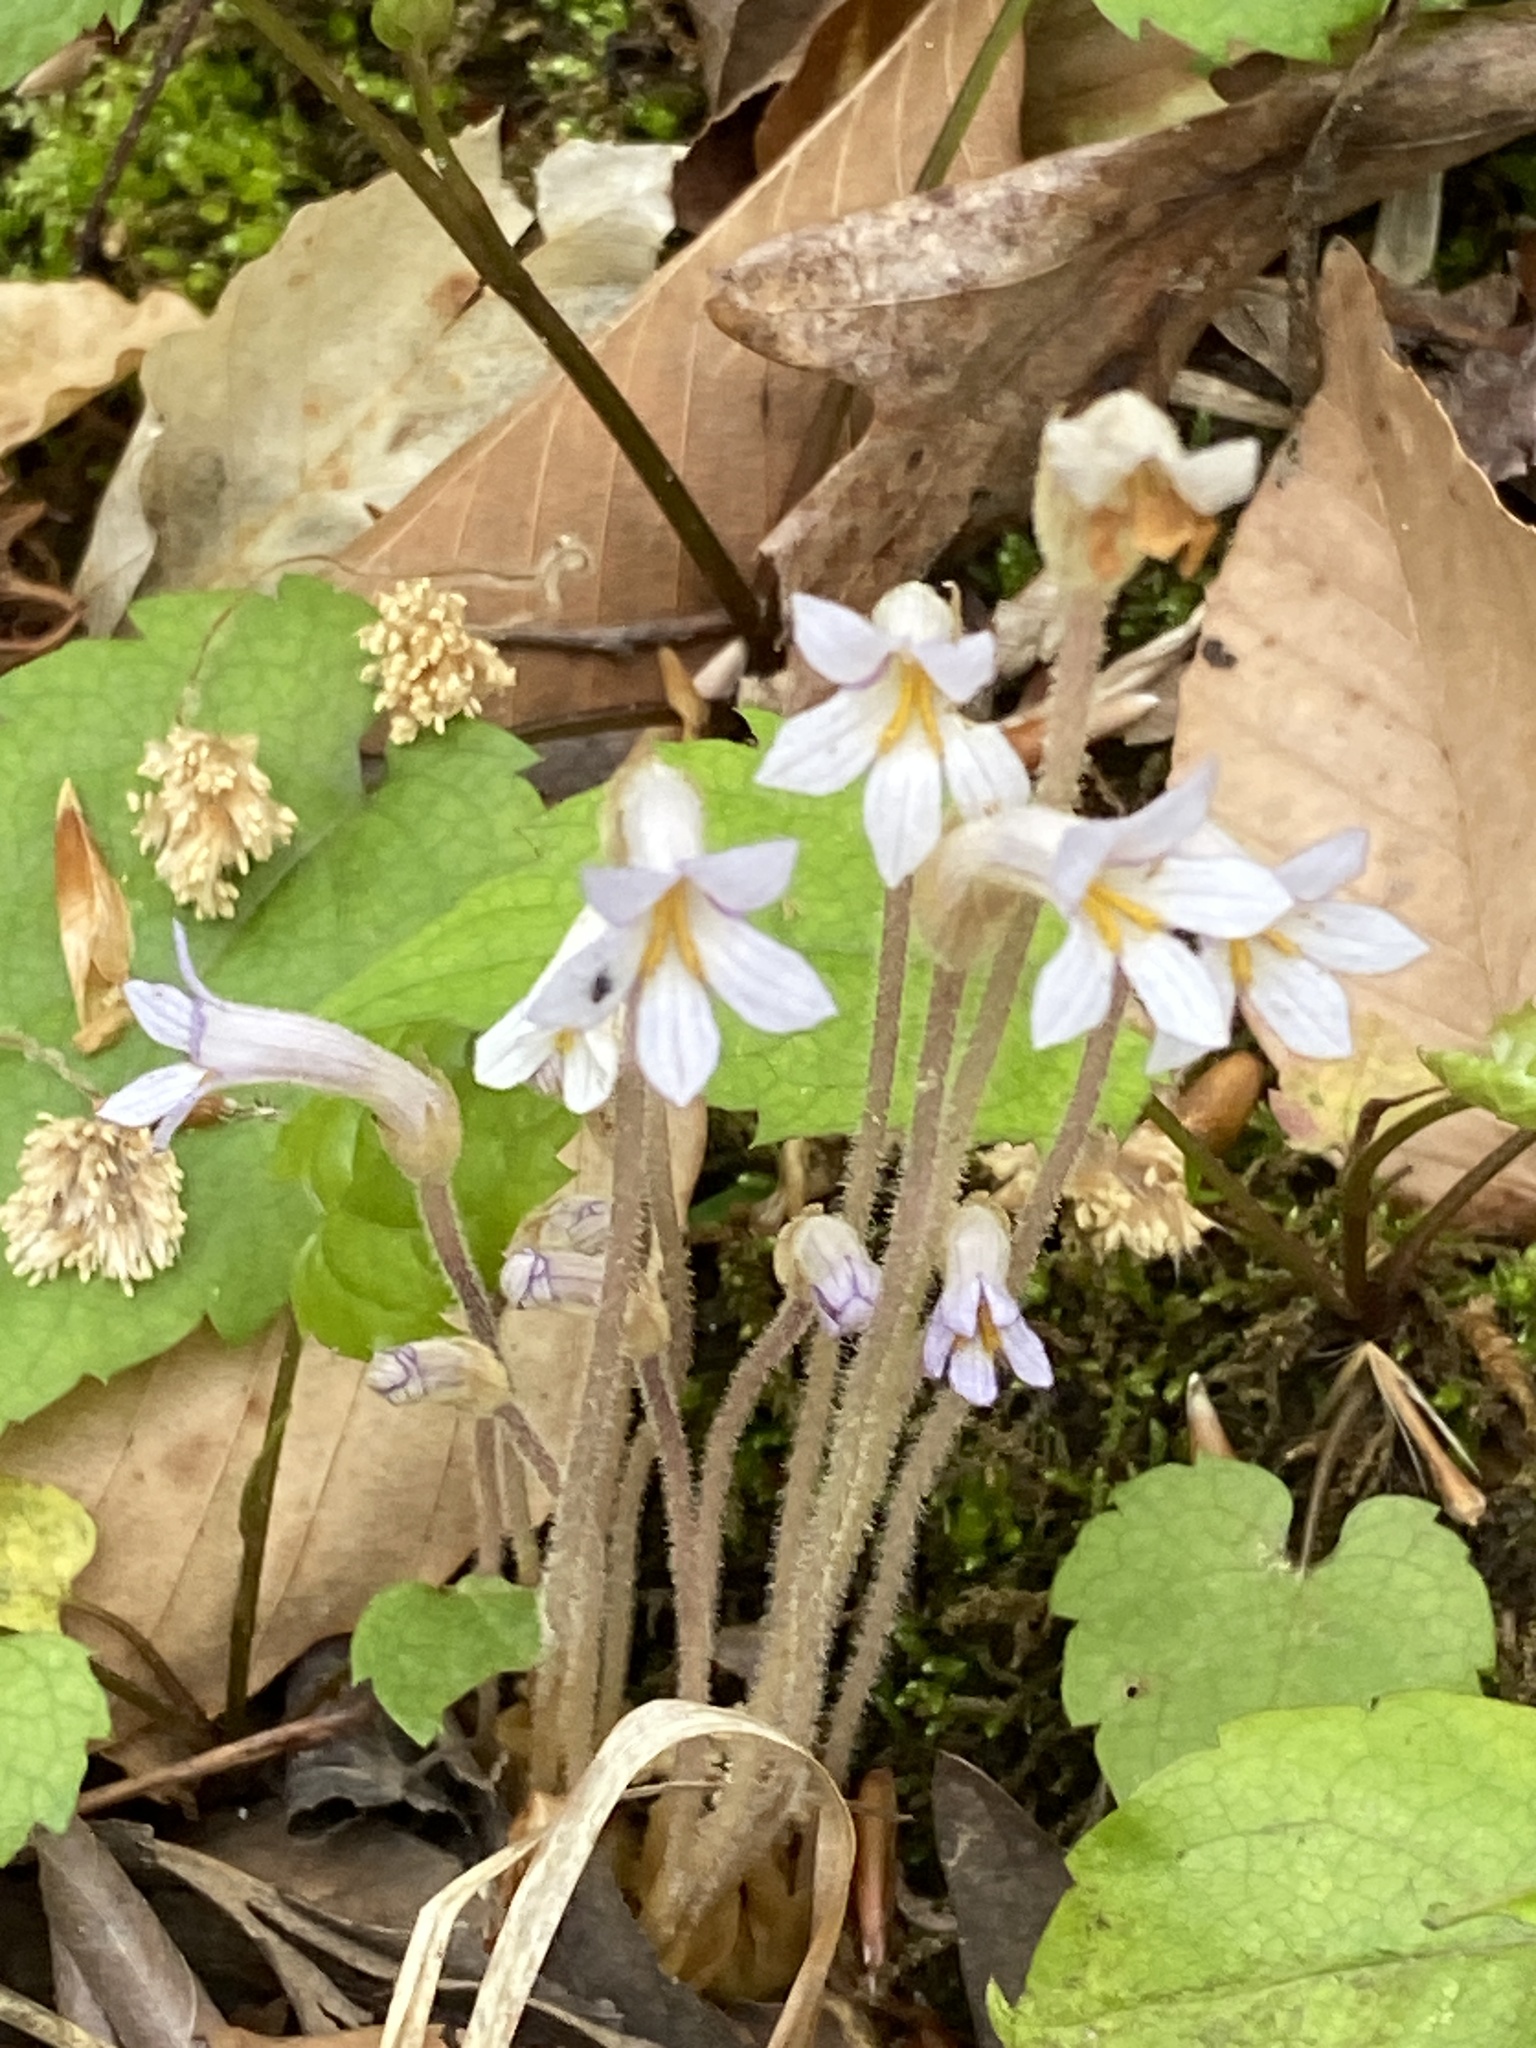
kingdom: Plantae
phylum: Tracheophyta
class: Magnoliopsida
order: Lamiales
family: Orobanchaceae
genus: Aphyllon
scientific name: Aphyllon uniflorum
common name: One-flowered broomrape
